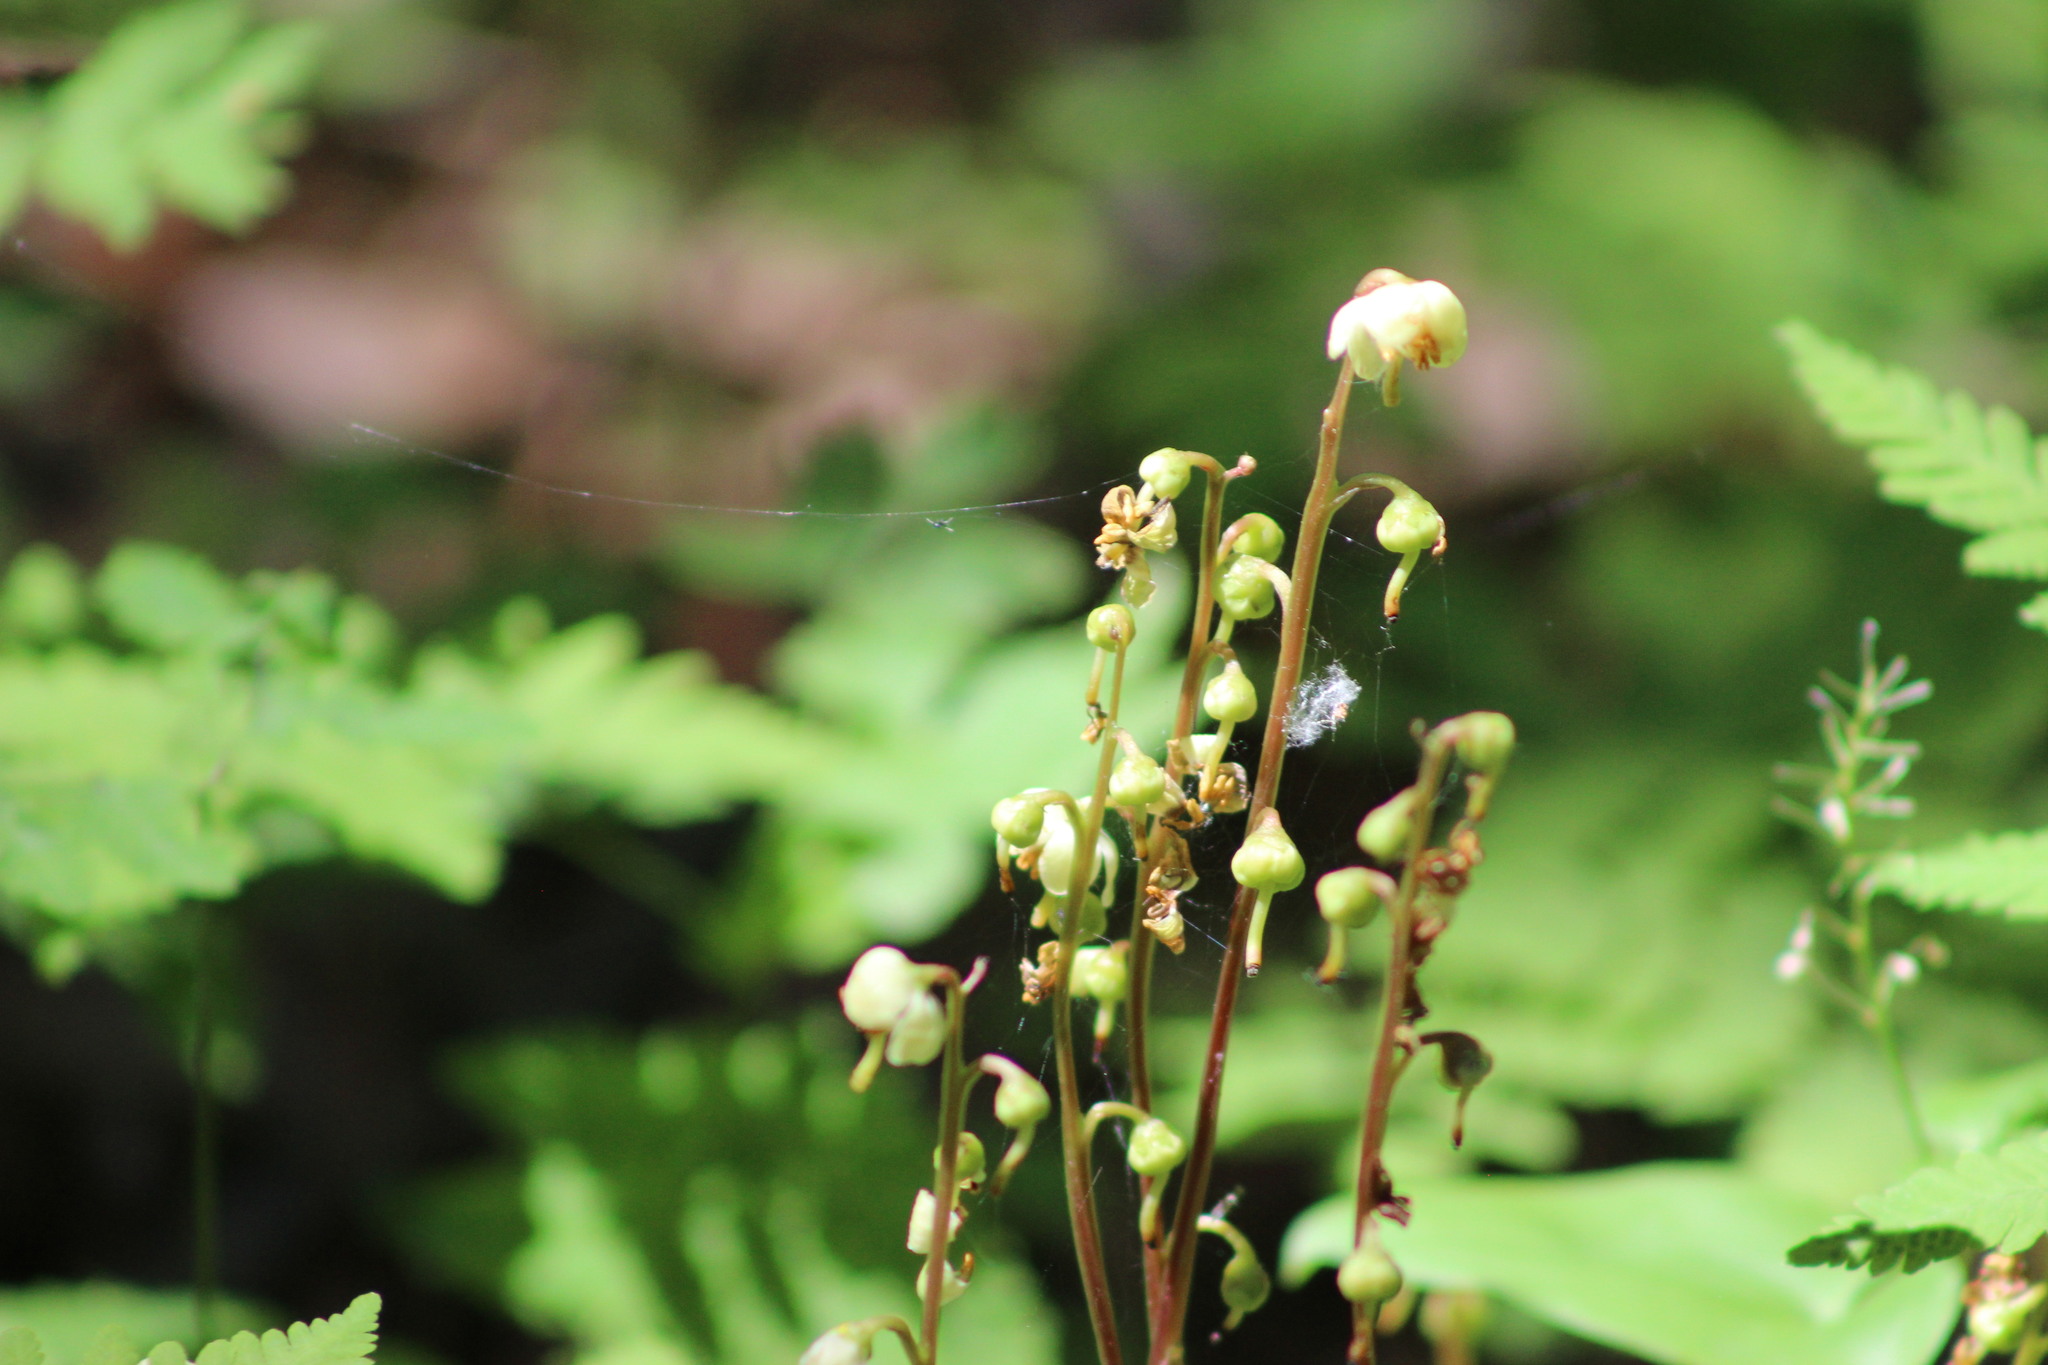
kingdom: Plantae
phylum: Tracheophyta
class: Magnoliopsida
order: Ericales
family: Ericaceae
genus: Pyrola
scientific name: Pyrola chlorantha
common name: Green wintergreen
